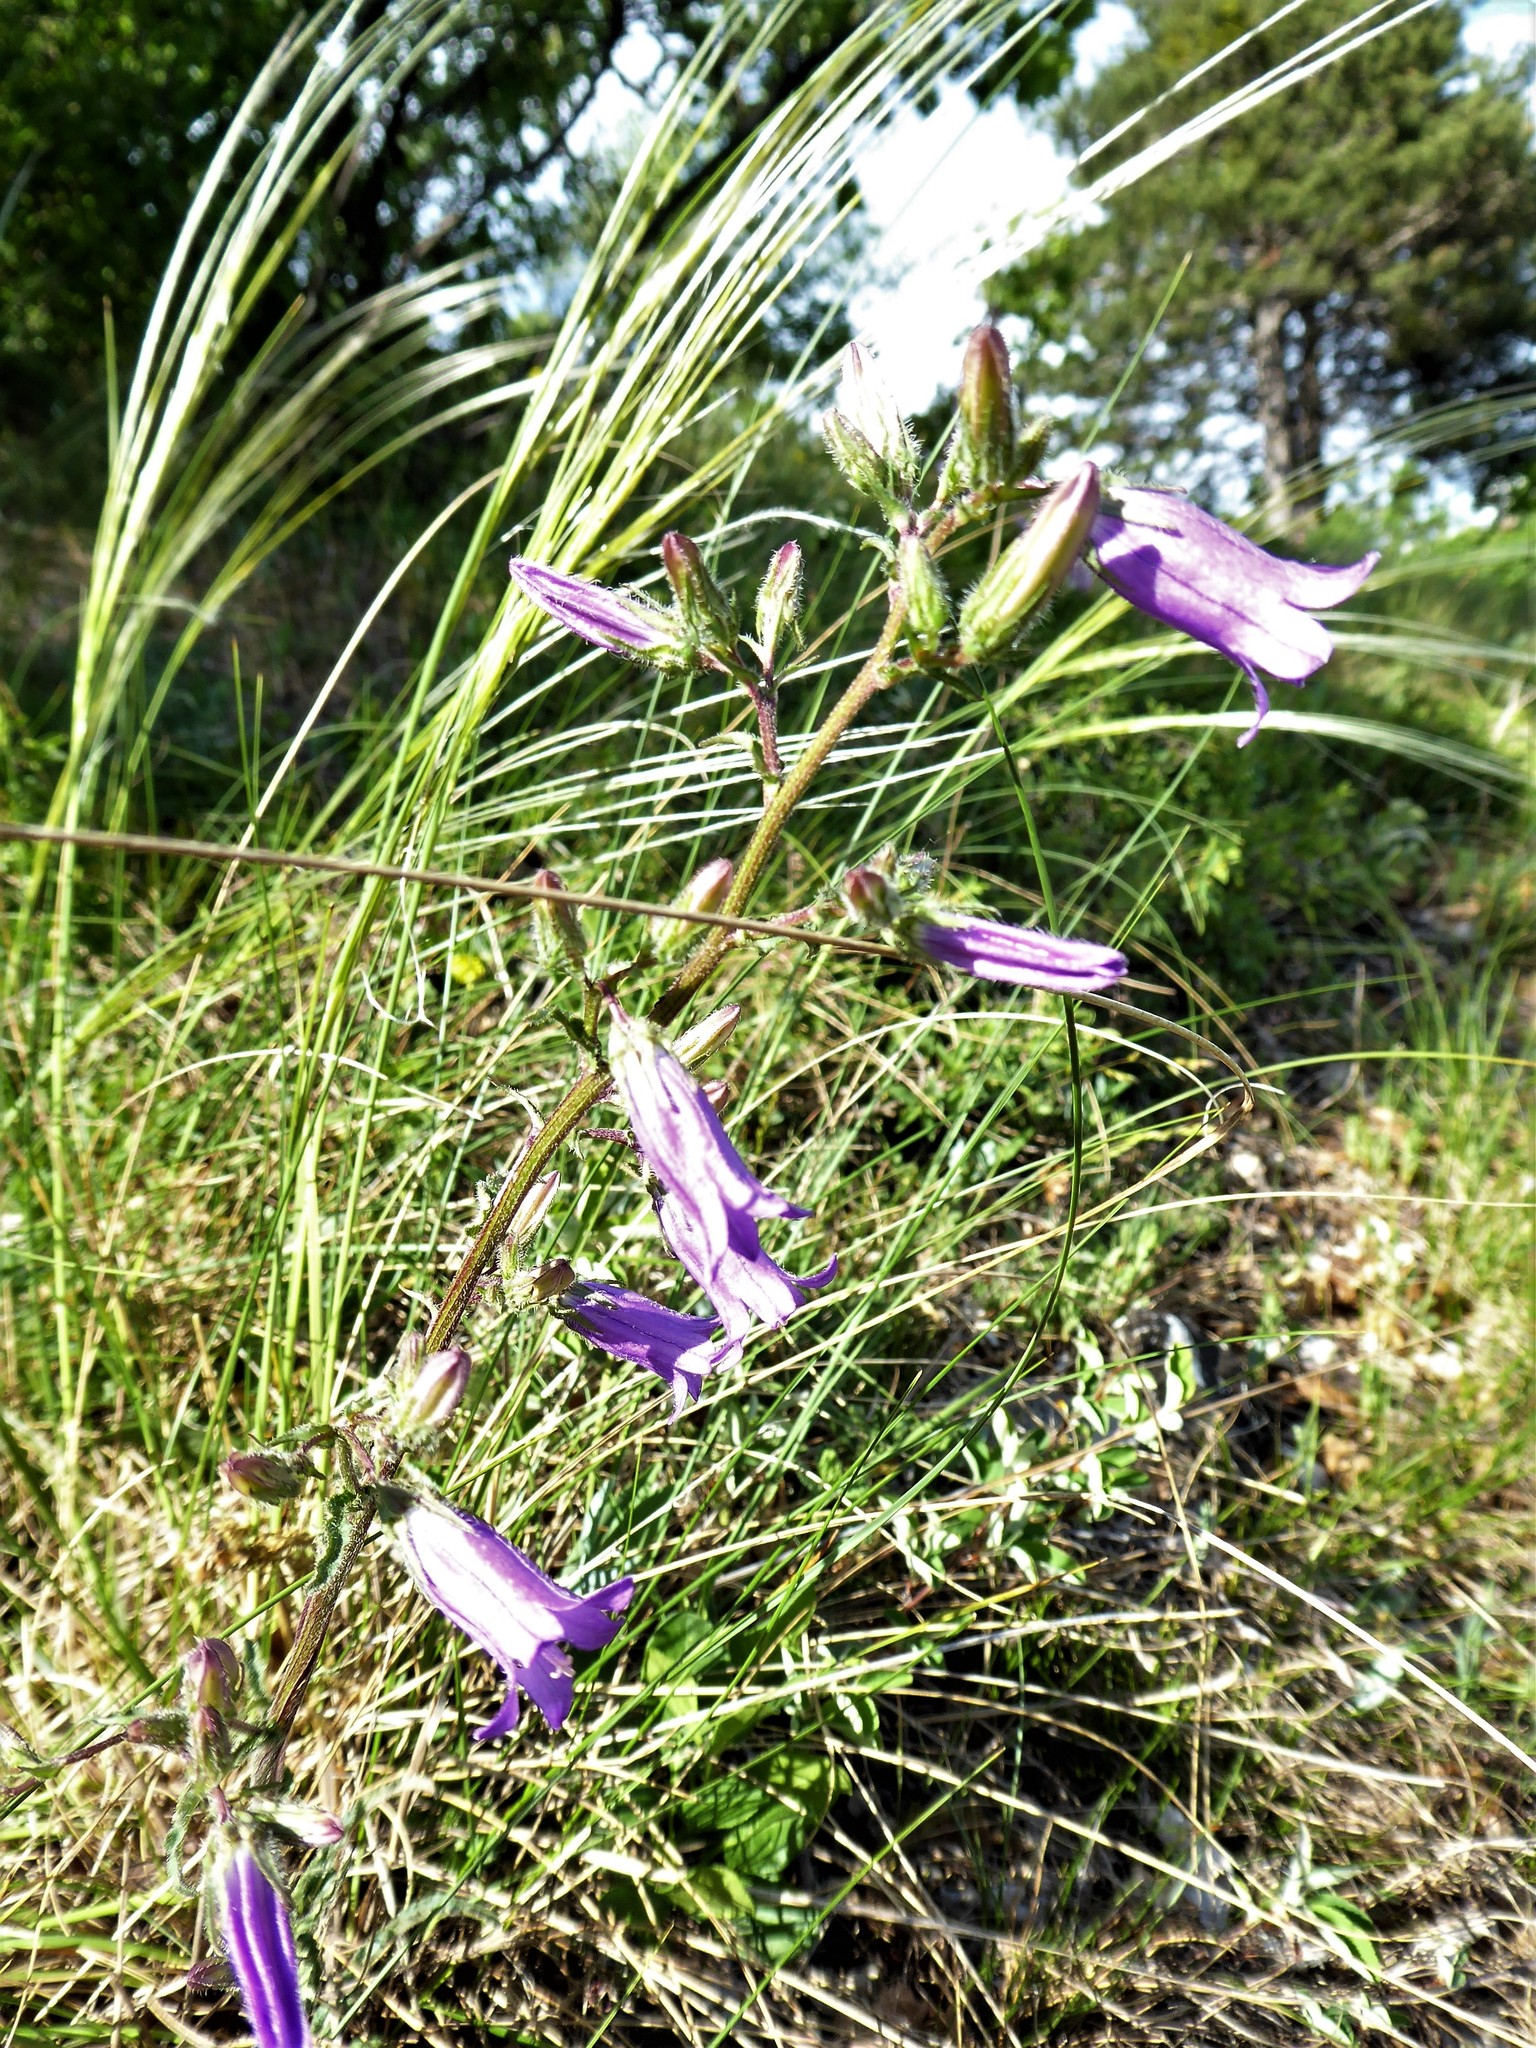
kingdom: Plantae
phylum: Tracheophyta
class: Magnoliopsida
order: Asterales
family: Campanulaceae
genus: Campanula
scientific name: Campanula sibirica
